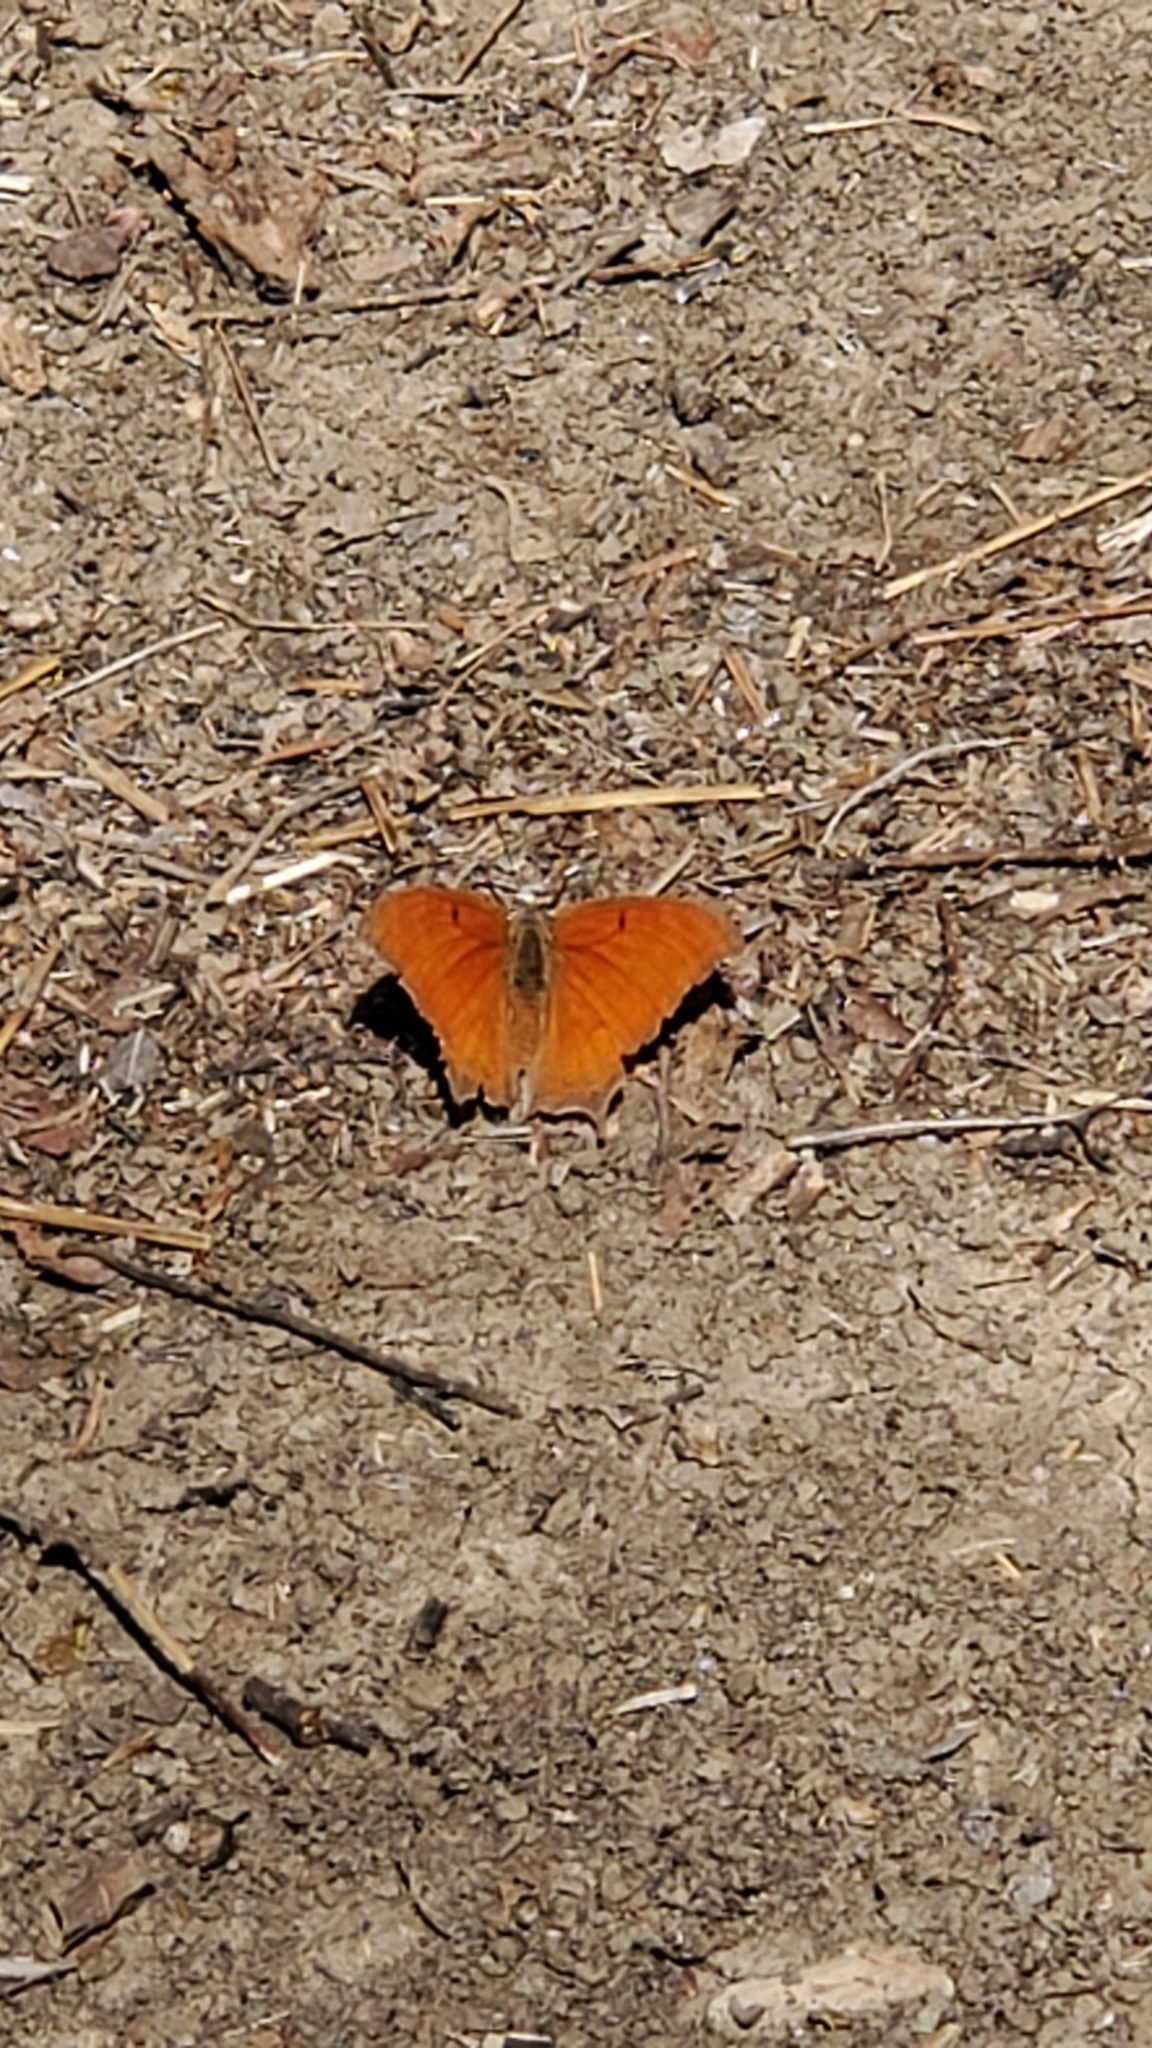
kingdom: Animalia
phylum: Arthropoda
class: Insecta
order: Lepidoptera
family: Nymphalidae
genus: Anaea
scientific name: Anaea andria
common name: Goatweed leafwing
